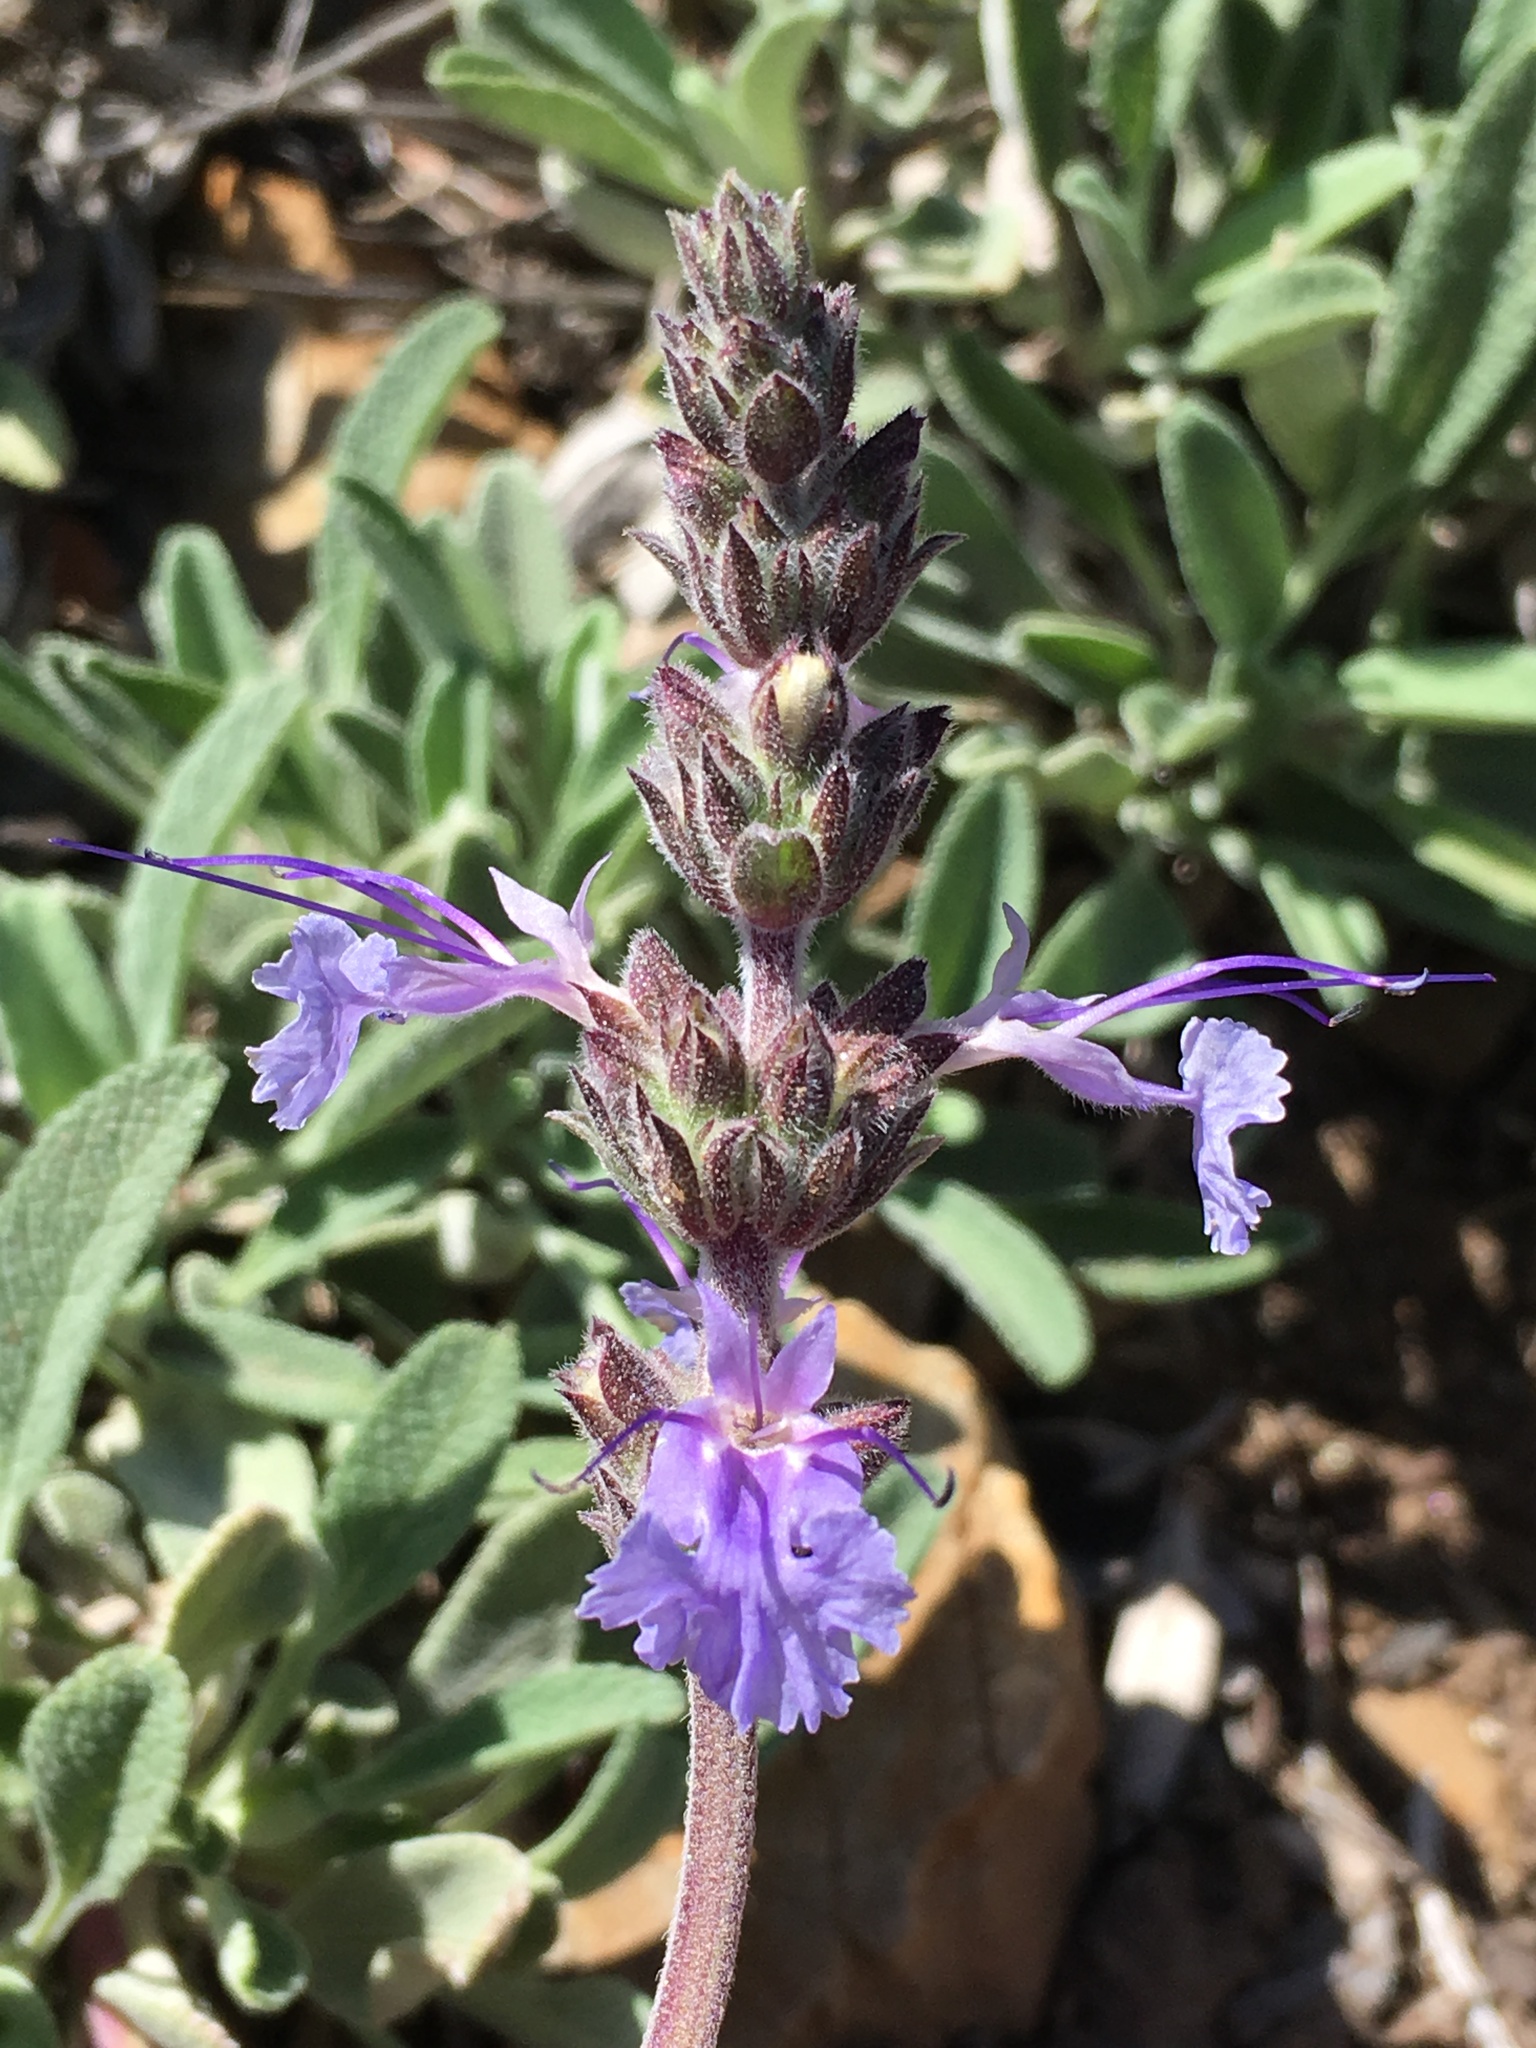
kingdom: Plantae
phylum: Tracheophyta
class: Magnoliopsida
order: Lamiales
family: Lamiaceae
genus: Salvia
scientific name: Salvia sonomensis
